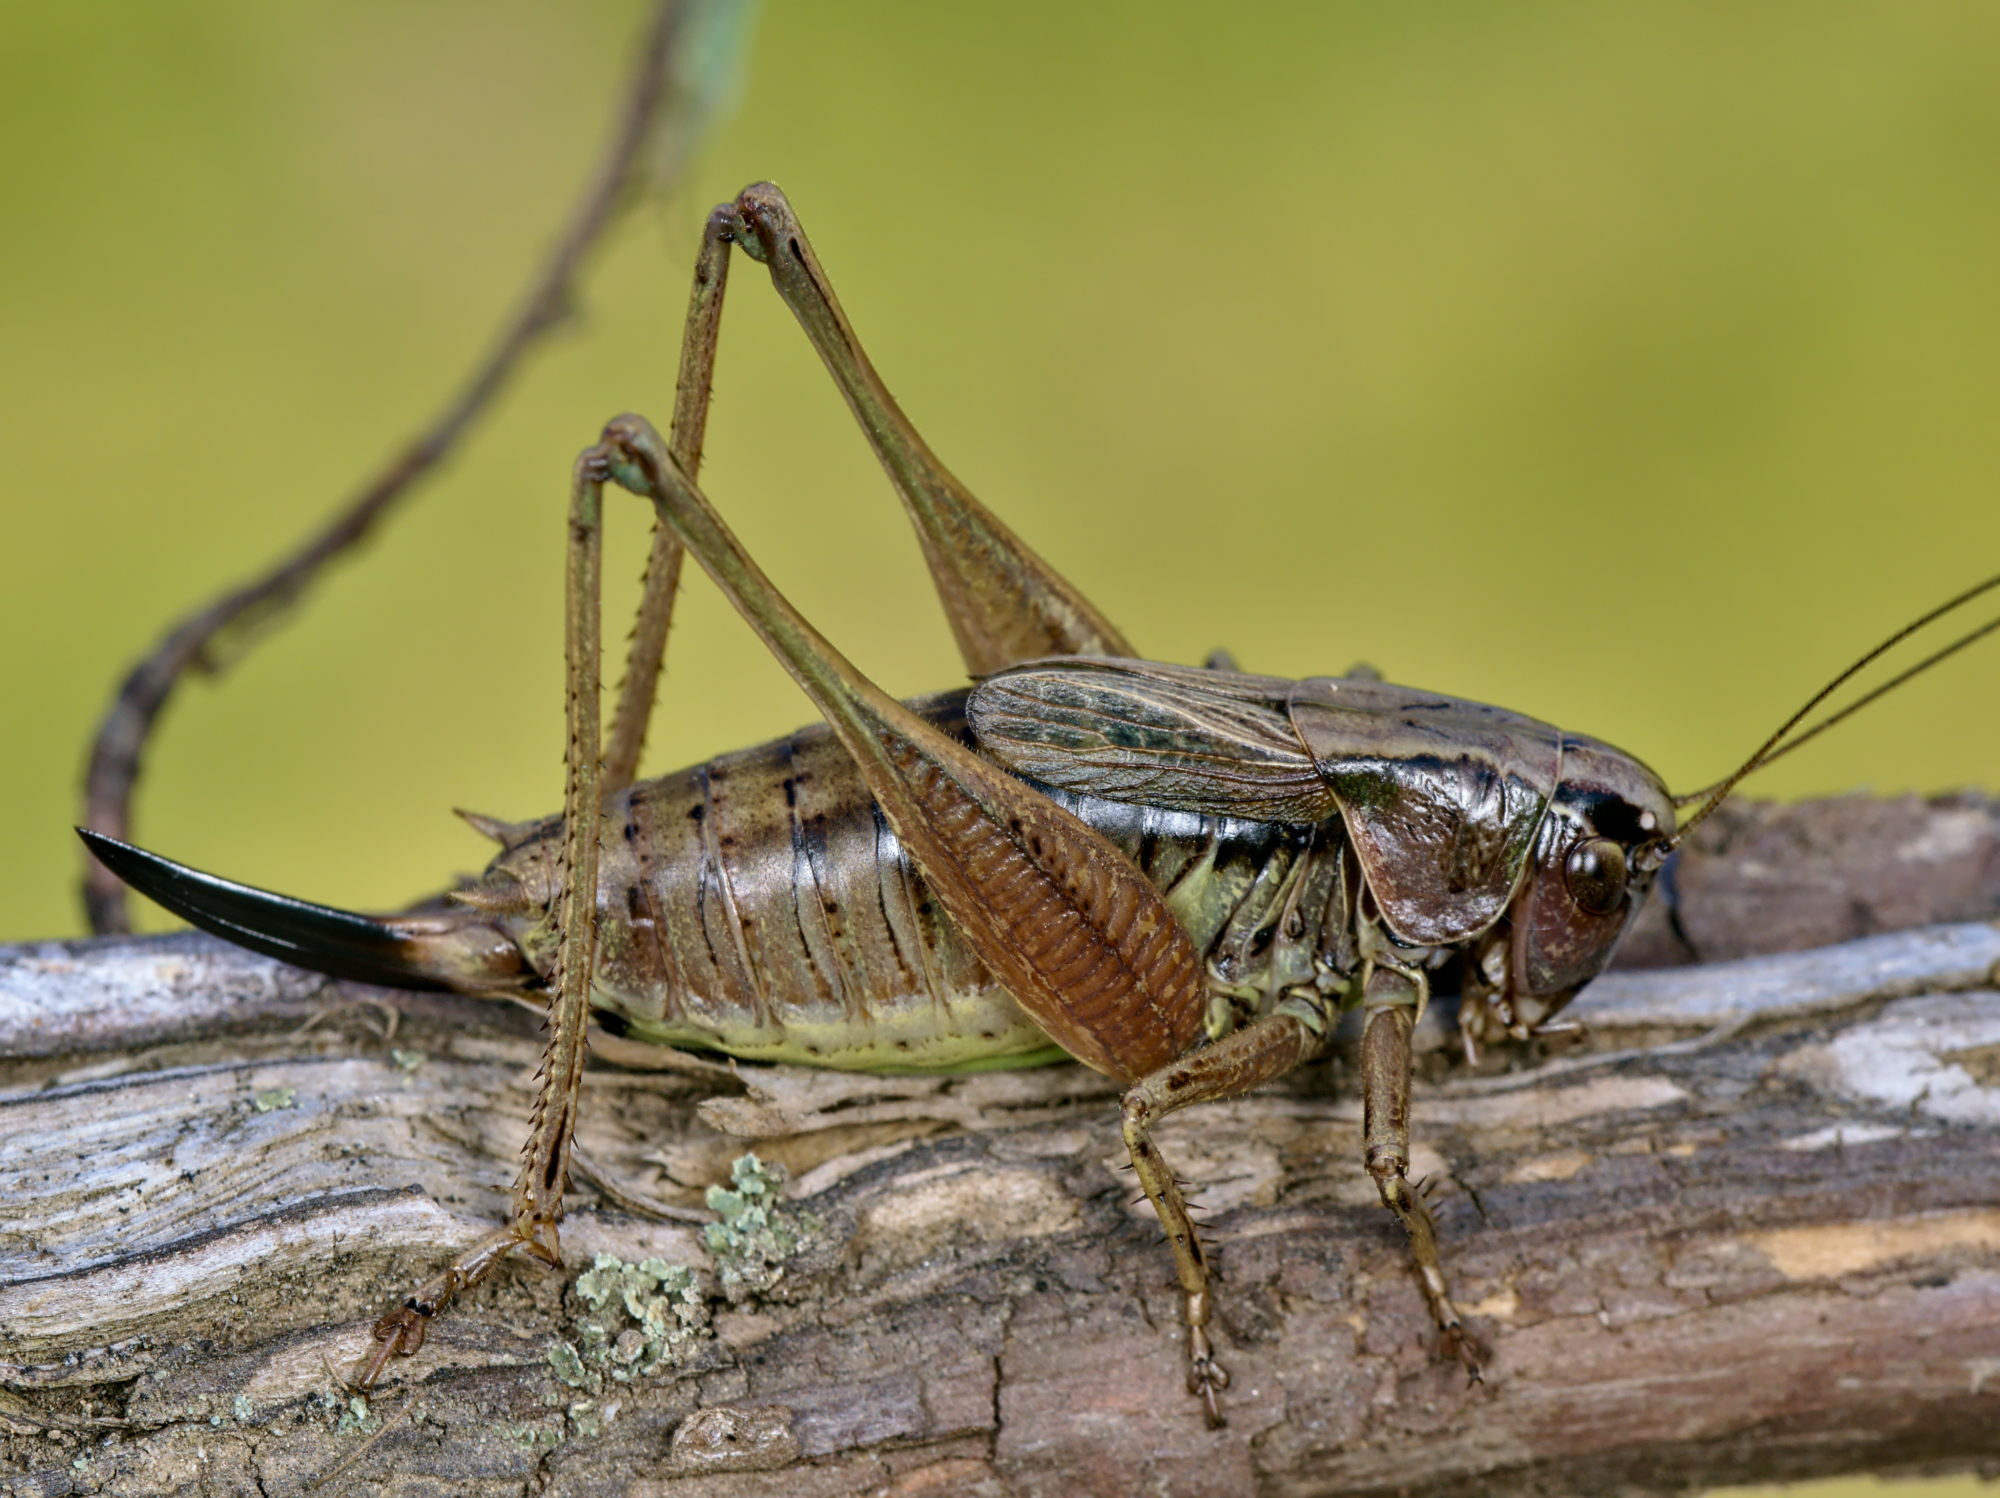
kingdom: Animalia
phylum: Arthropoda
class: Insecta
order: Orthoptera
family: Tettigoniidae
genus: Metrioptera
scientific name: Metrioptera caprai
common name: Italian meadow bush-cricket
